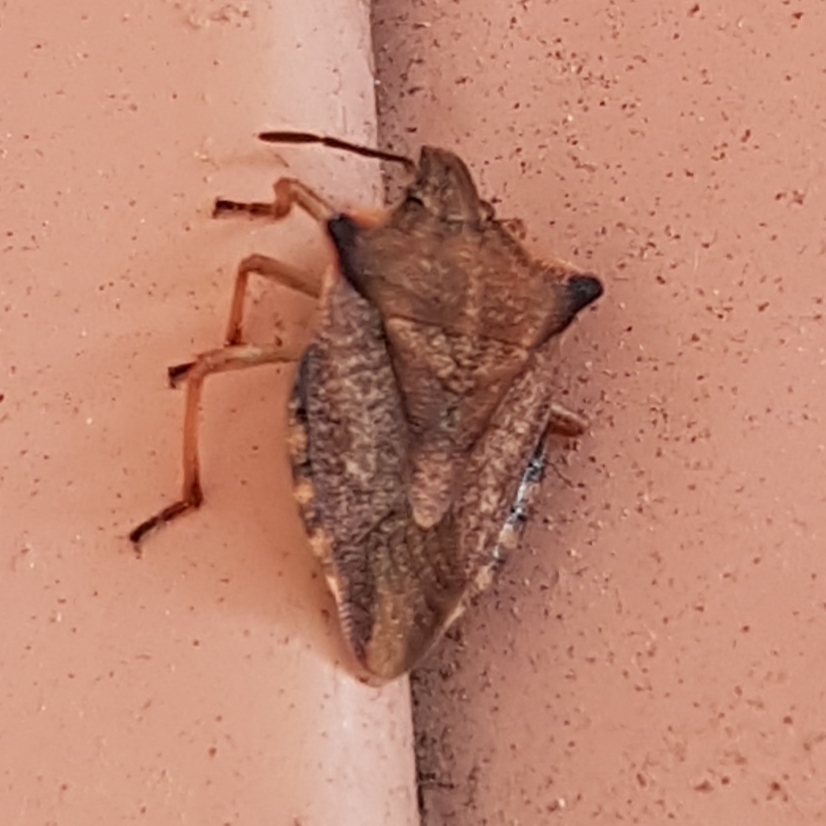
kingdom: Animalia
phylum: Arthropoda
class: Insecta
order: Hemiptera
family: Pentatomidae
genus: Carpocoris
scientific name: Carpocoris mediterraneus
